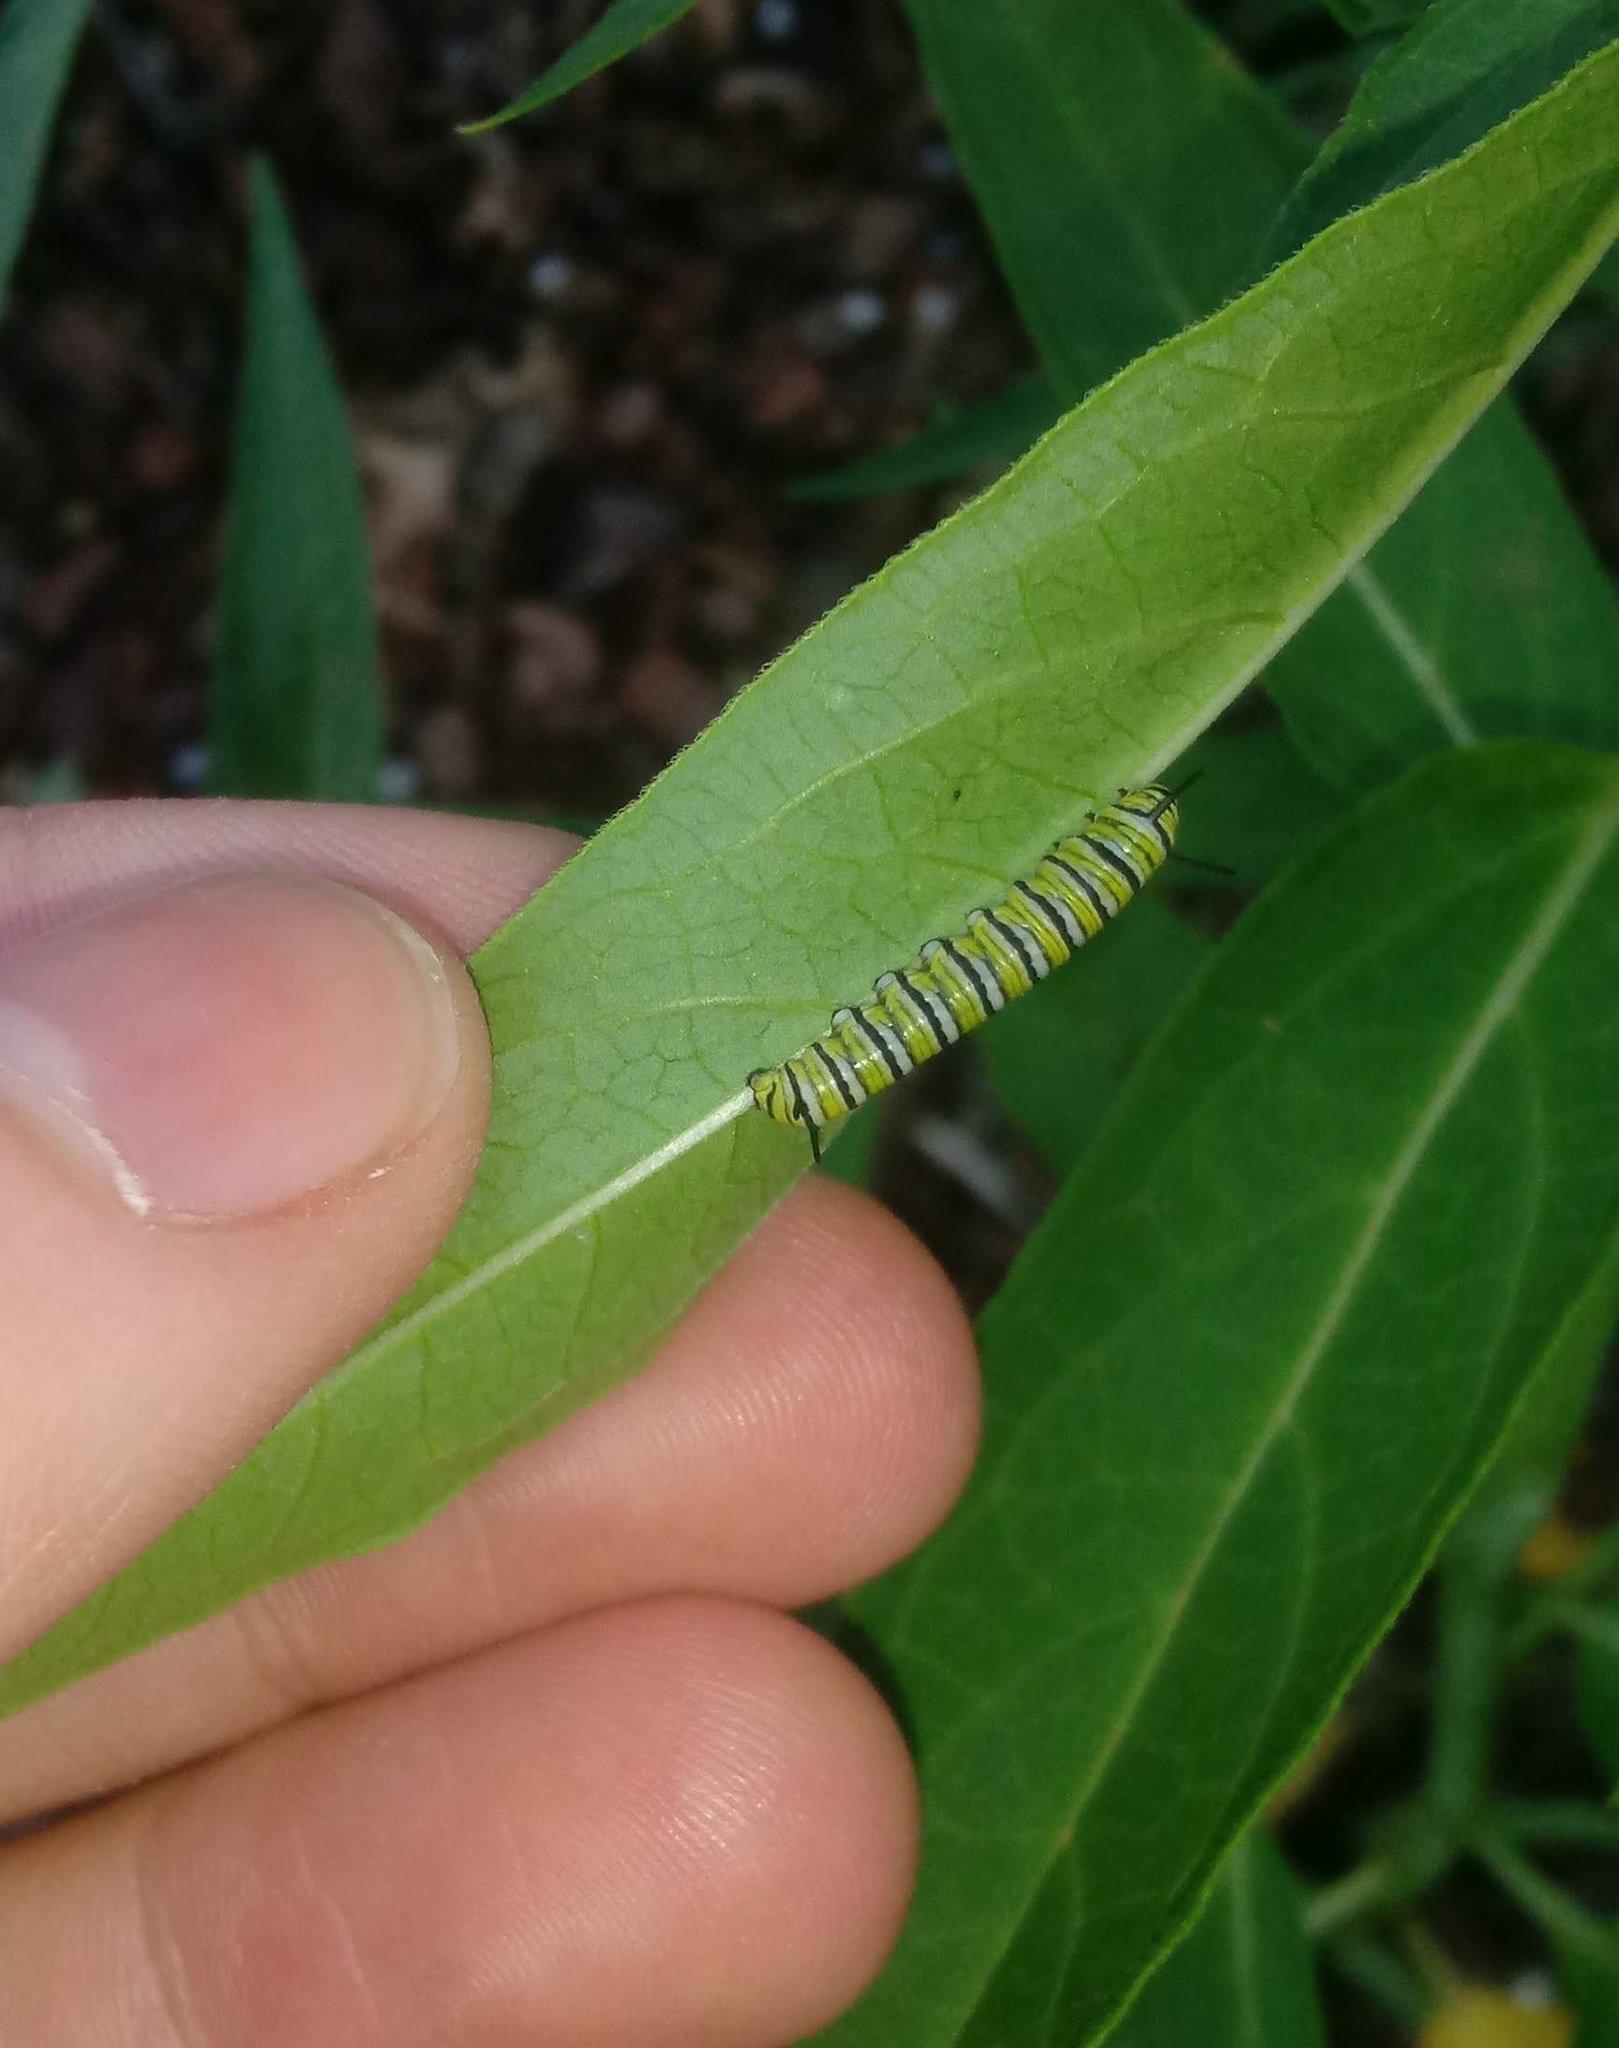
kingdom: Animalia
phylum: Arthropoda
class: Insecta
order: Lepidoptera
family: Nymphalidae
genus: Danaus
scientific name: Danaus plexippus
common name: Monarch
